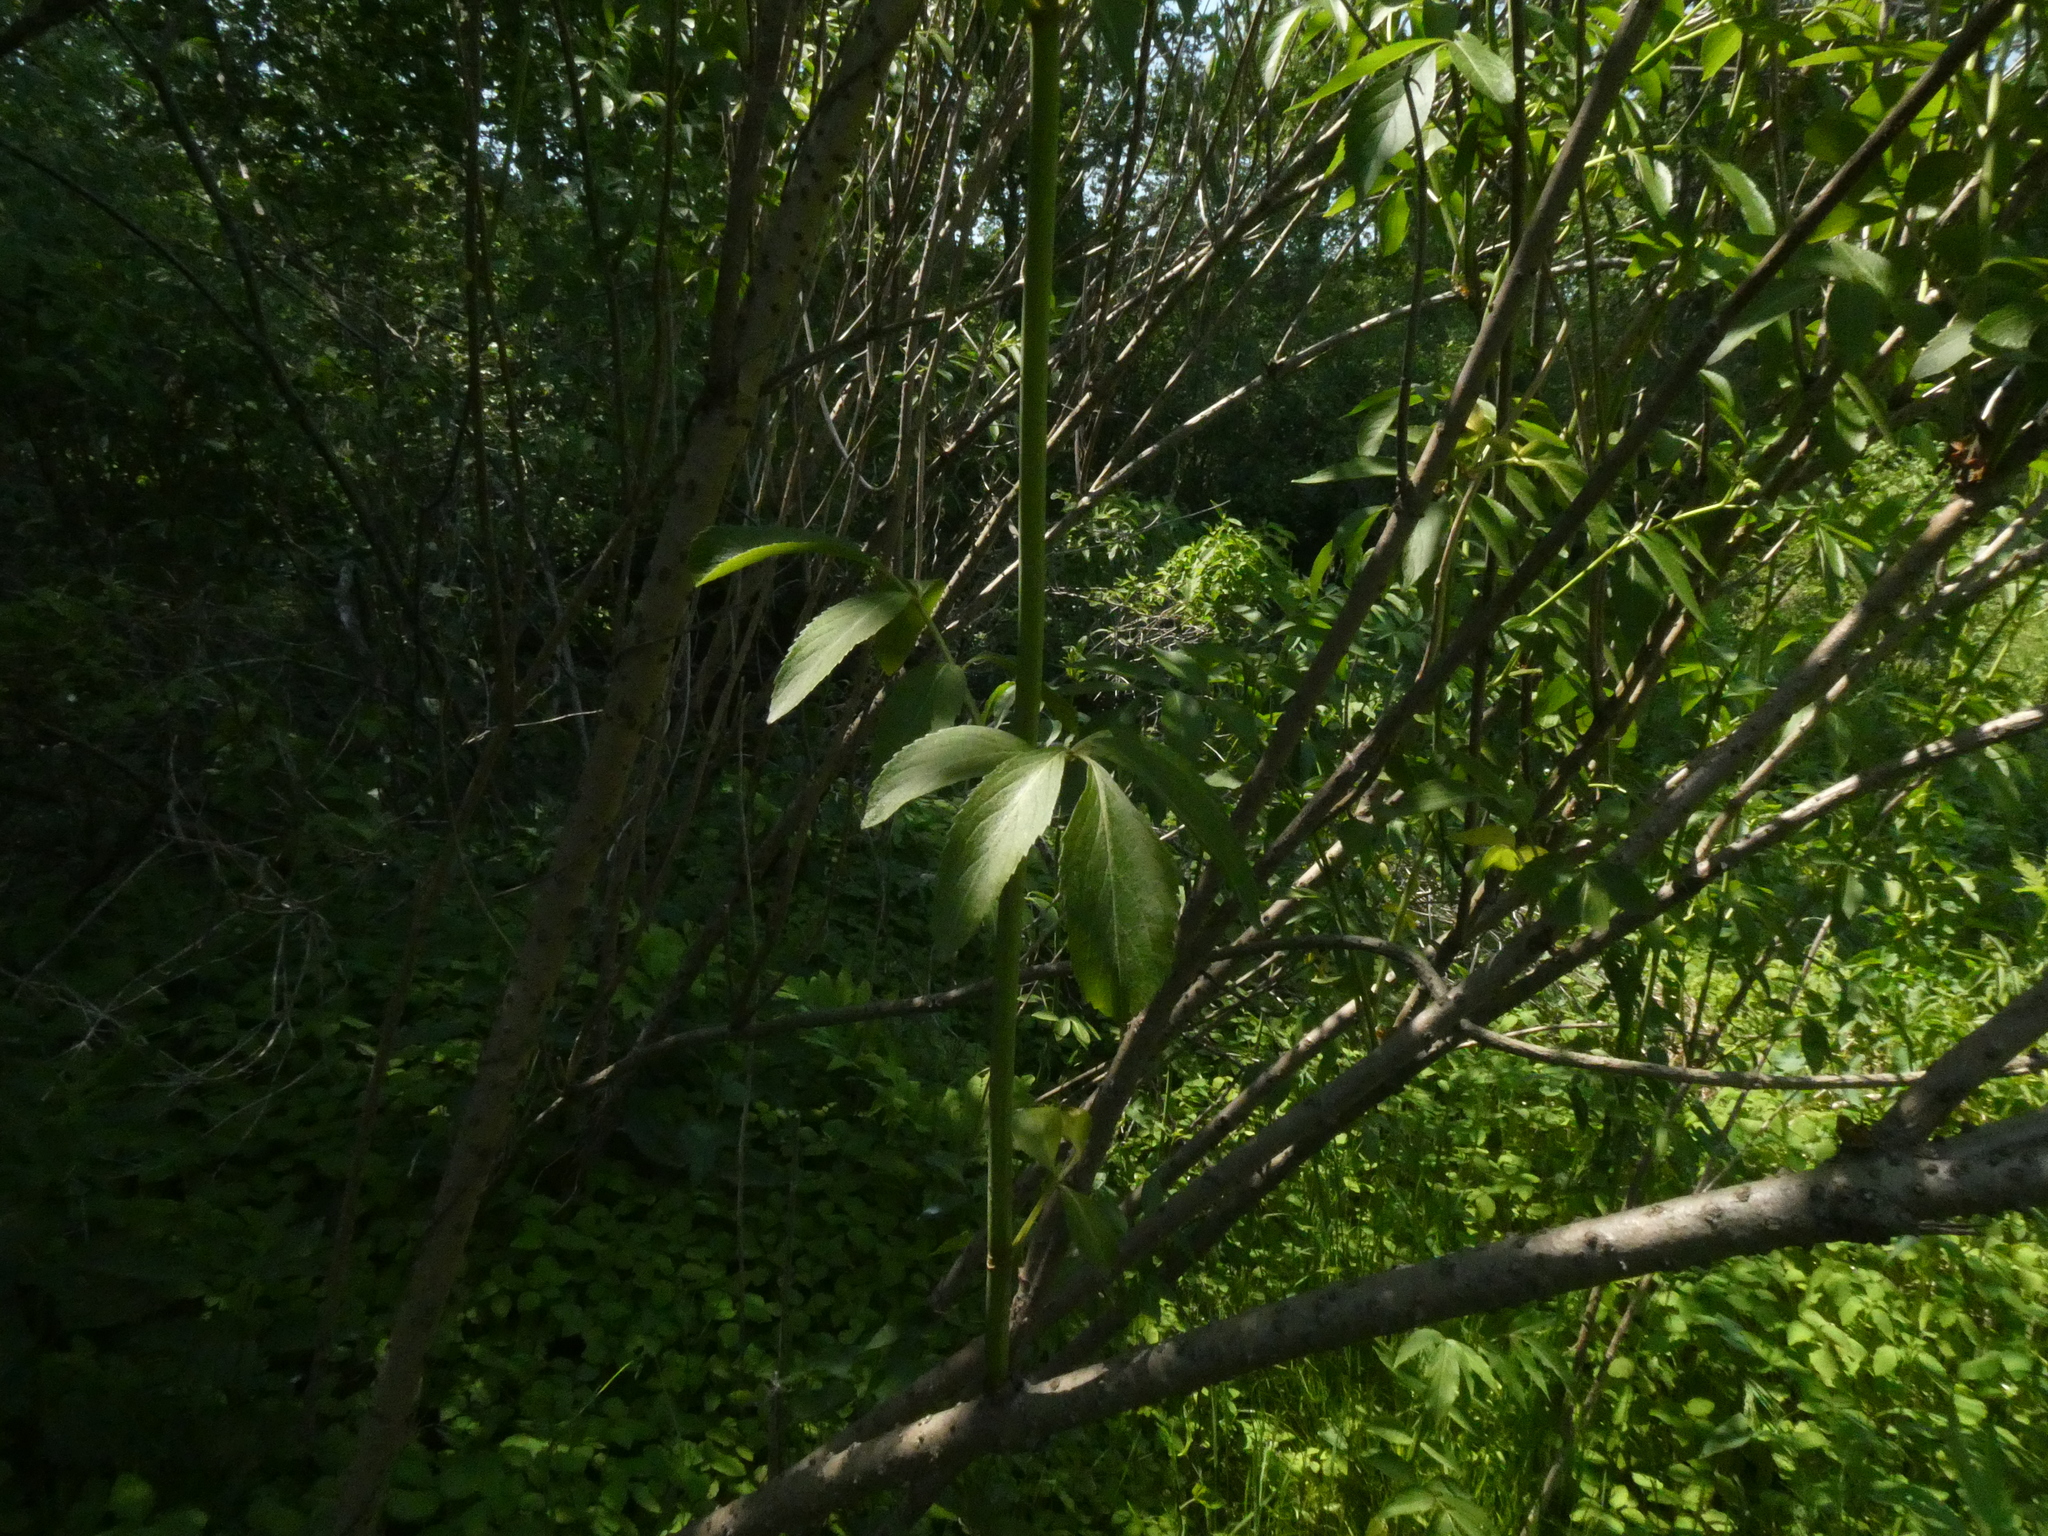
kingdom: Plantae
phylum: Tracheophyta
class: Magnoliopsida
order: Dipsacales
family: Viburnaceae
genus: Sambucus
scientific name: Sambucus canadensis
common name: American elder
